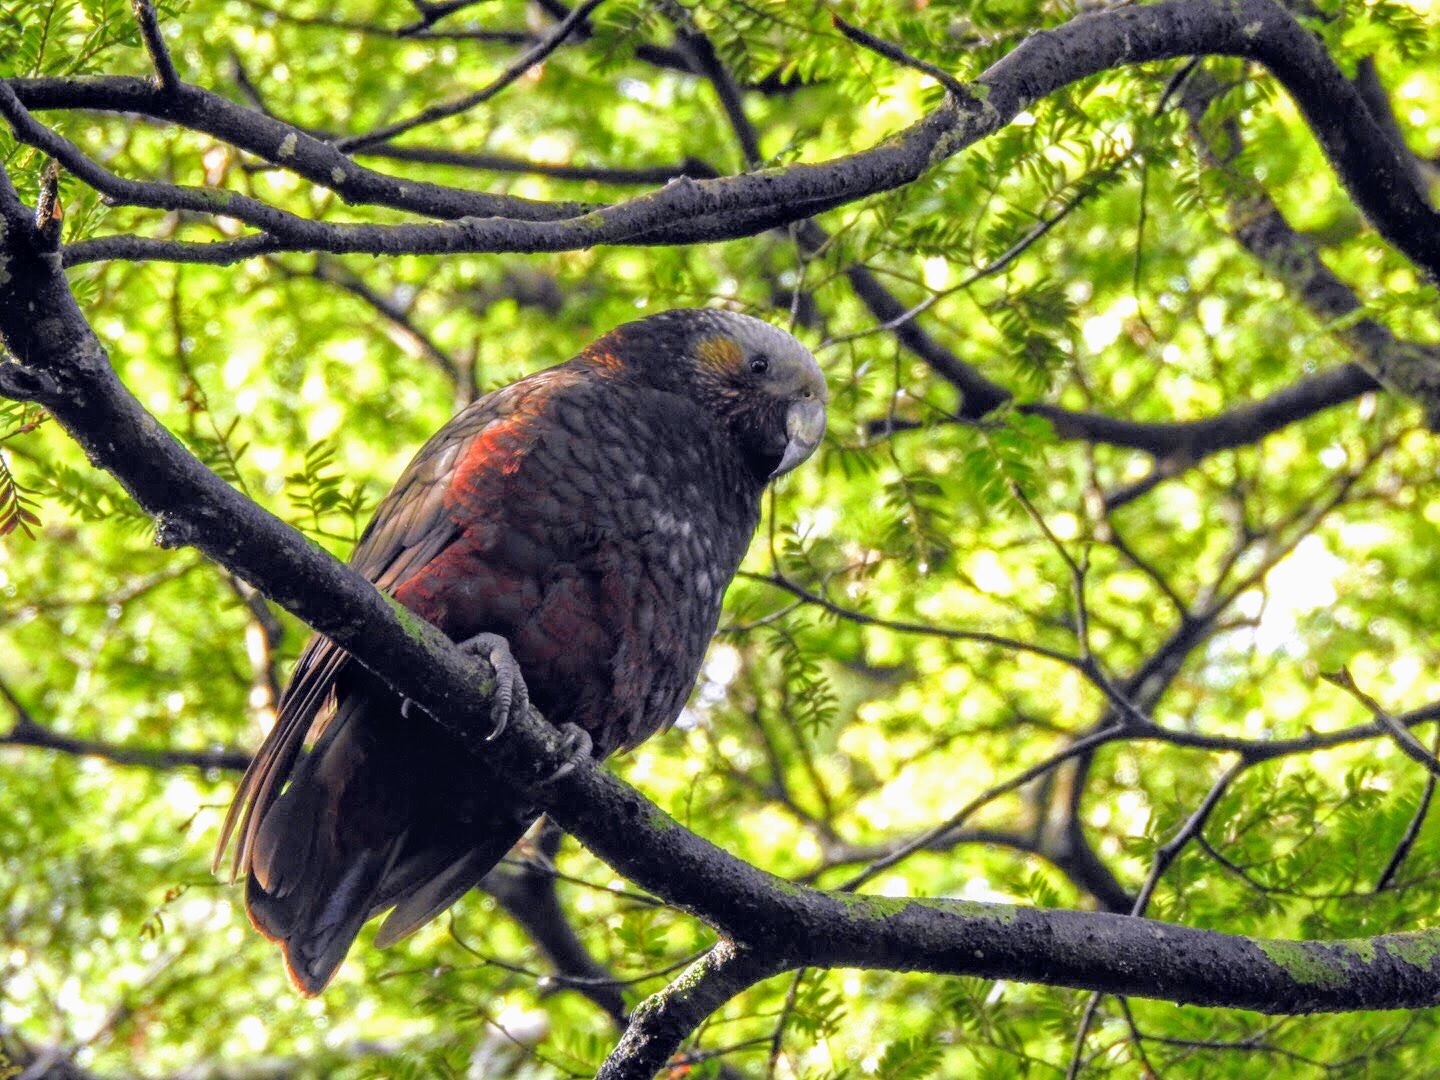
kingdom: Animalia
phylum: Chordata
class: Aves
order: Psittaciformes
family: Psittacidae
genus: Nestor
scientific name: Nestor meridionalis
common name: New zealand kaka
